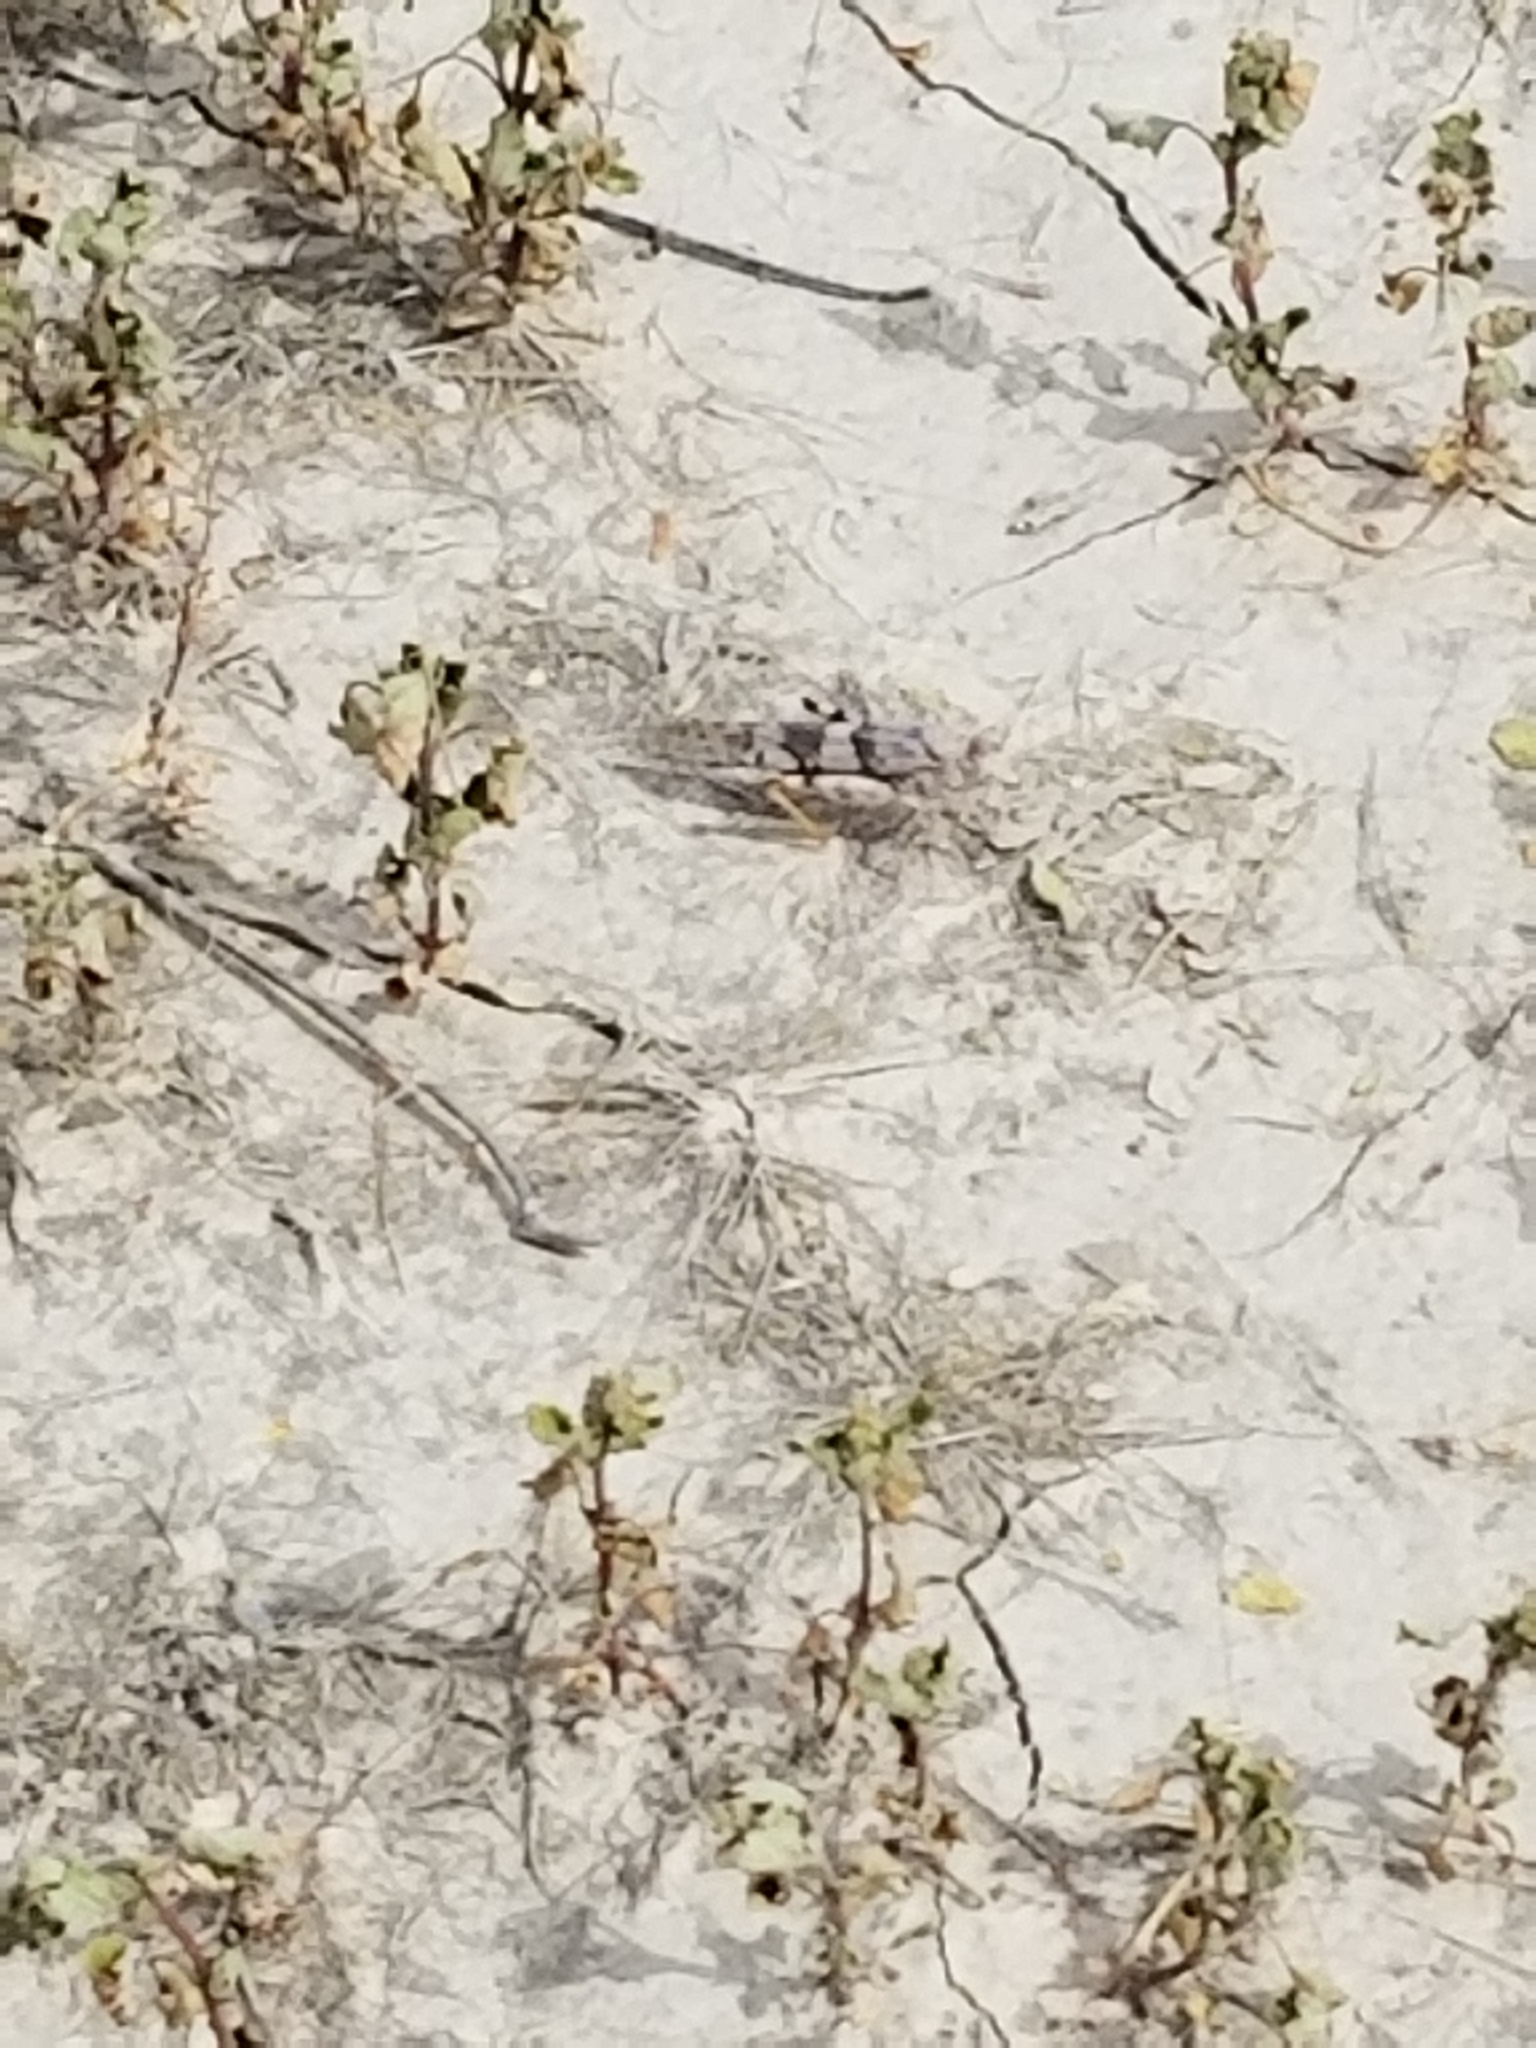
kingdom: Animalia
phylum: Arthropoda
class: Insecta
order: Orthoptera
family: Acrididae
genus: Trimerotropis
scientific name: Trimerotropis pallidipennis
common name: Pallid-winged grasshopper
